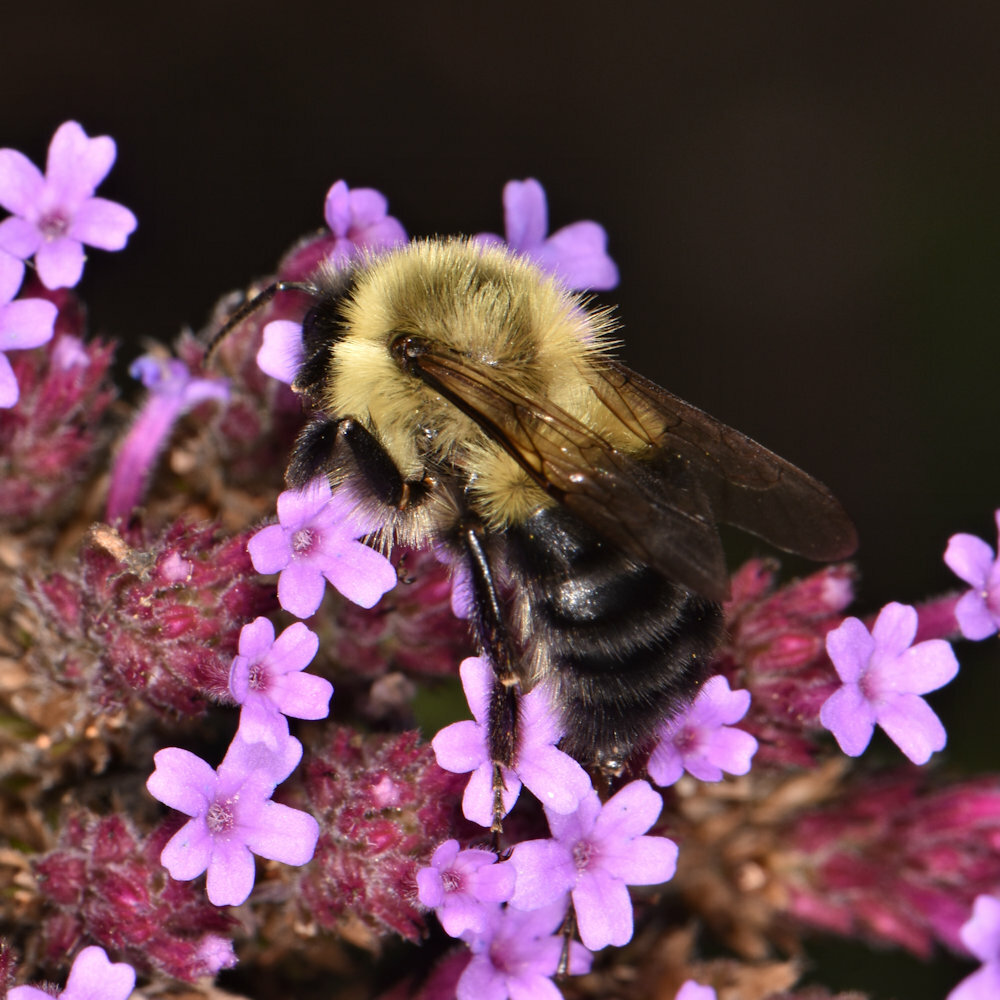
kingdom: Animalia
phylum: Arthropoda
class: Insecta
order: Hymenoptera
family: Apidae
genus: Bombus
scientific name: Bombus impatiens
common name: Common eastern bumble bee
